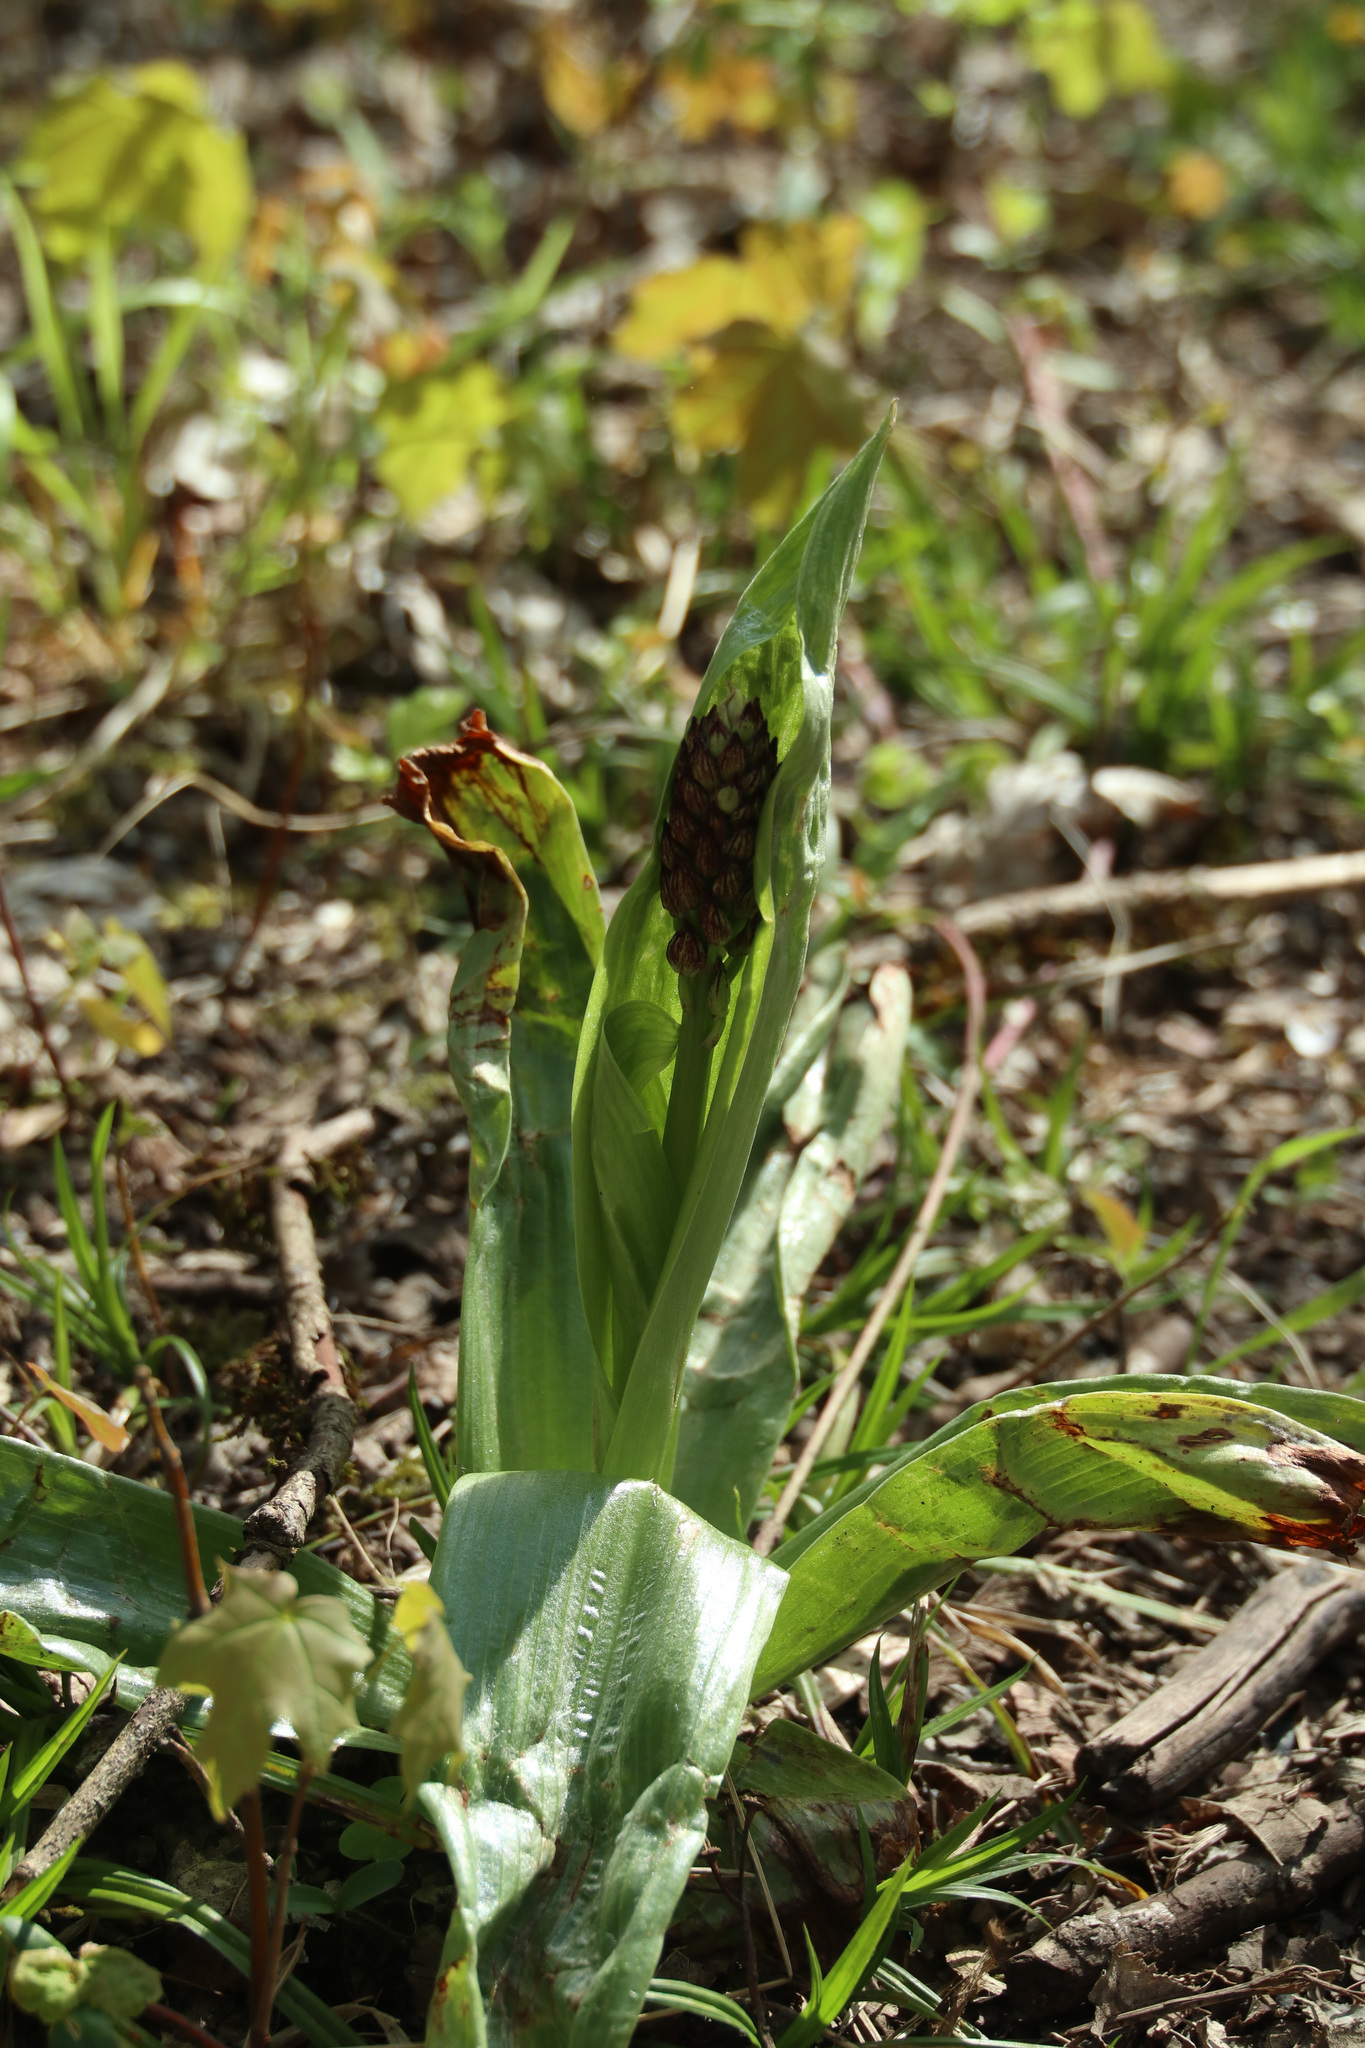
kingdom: Plantae
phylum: Tracheophyta
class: Liliopsida
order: Asparagales
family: Orchidaceae
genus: Orchis
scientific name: Orchis purpurea
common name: Lady orchid
